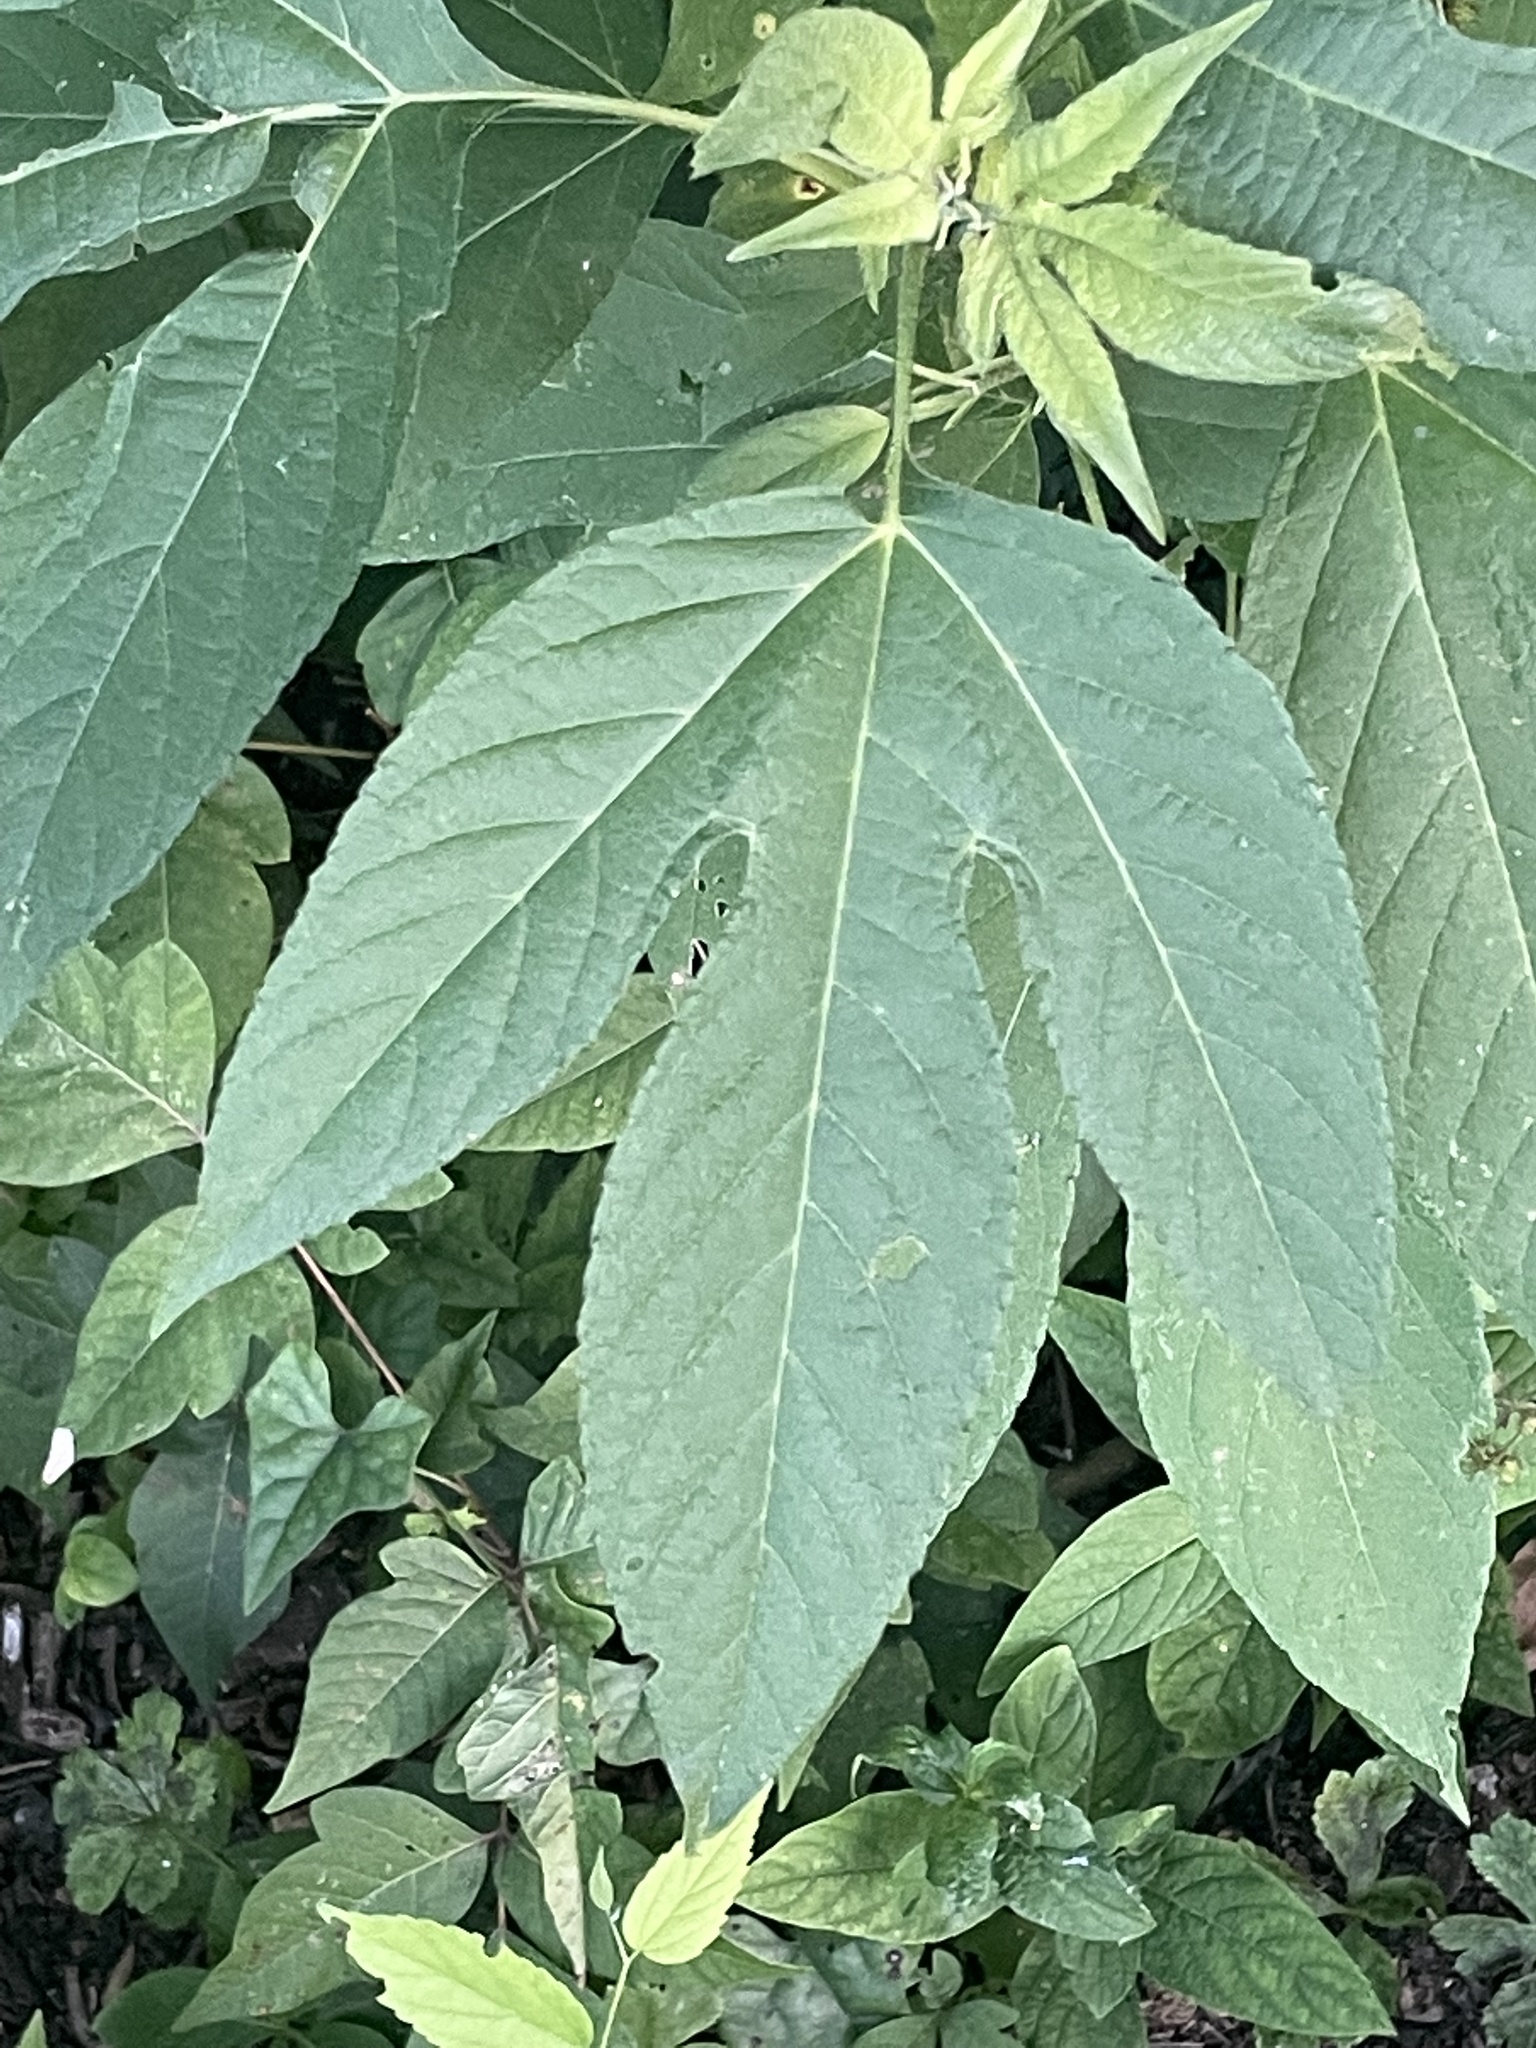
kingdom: Plantae
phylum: Tracheophyta
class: Magnoliopsida
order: Asterales
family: Asteraceae
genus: Ambrosia
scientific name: Ambrosia trifida
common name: Giant ragweed
